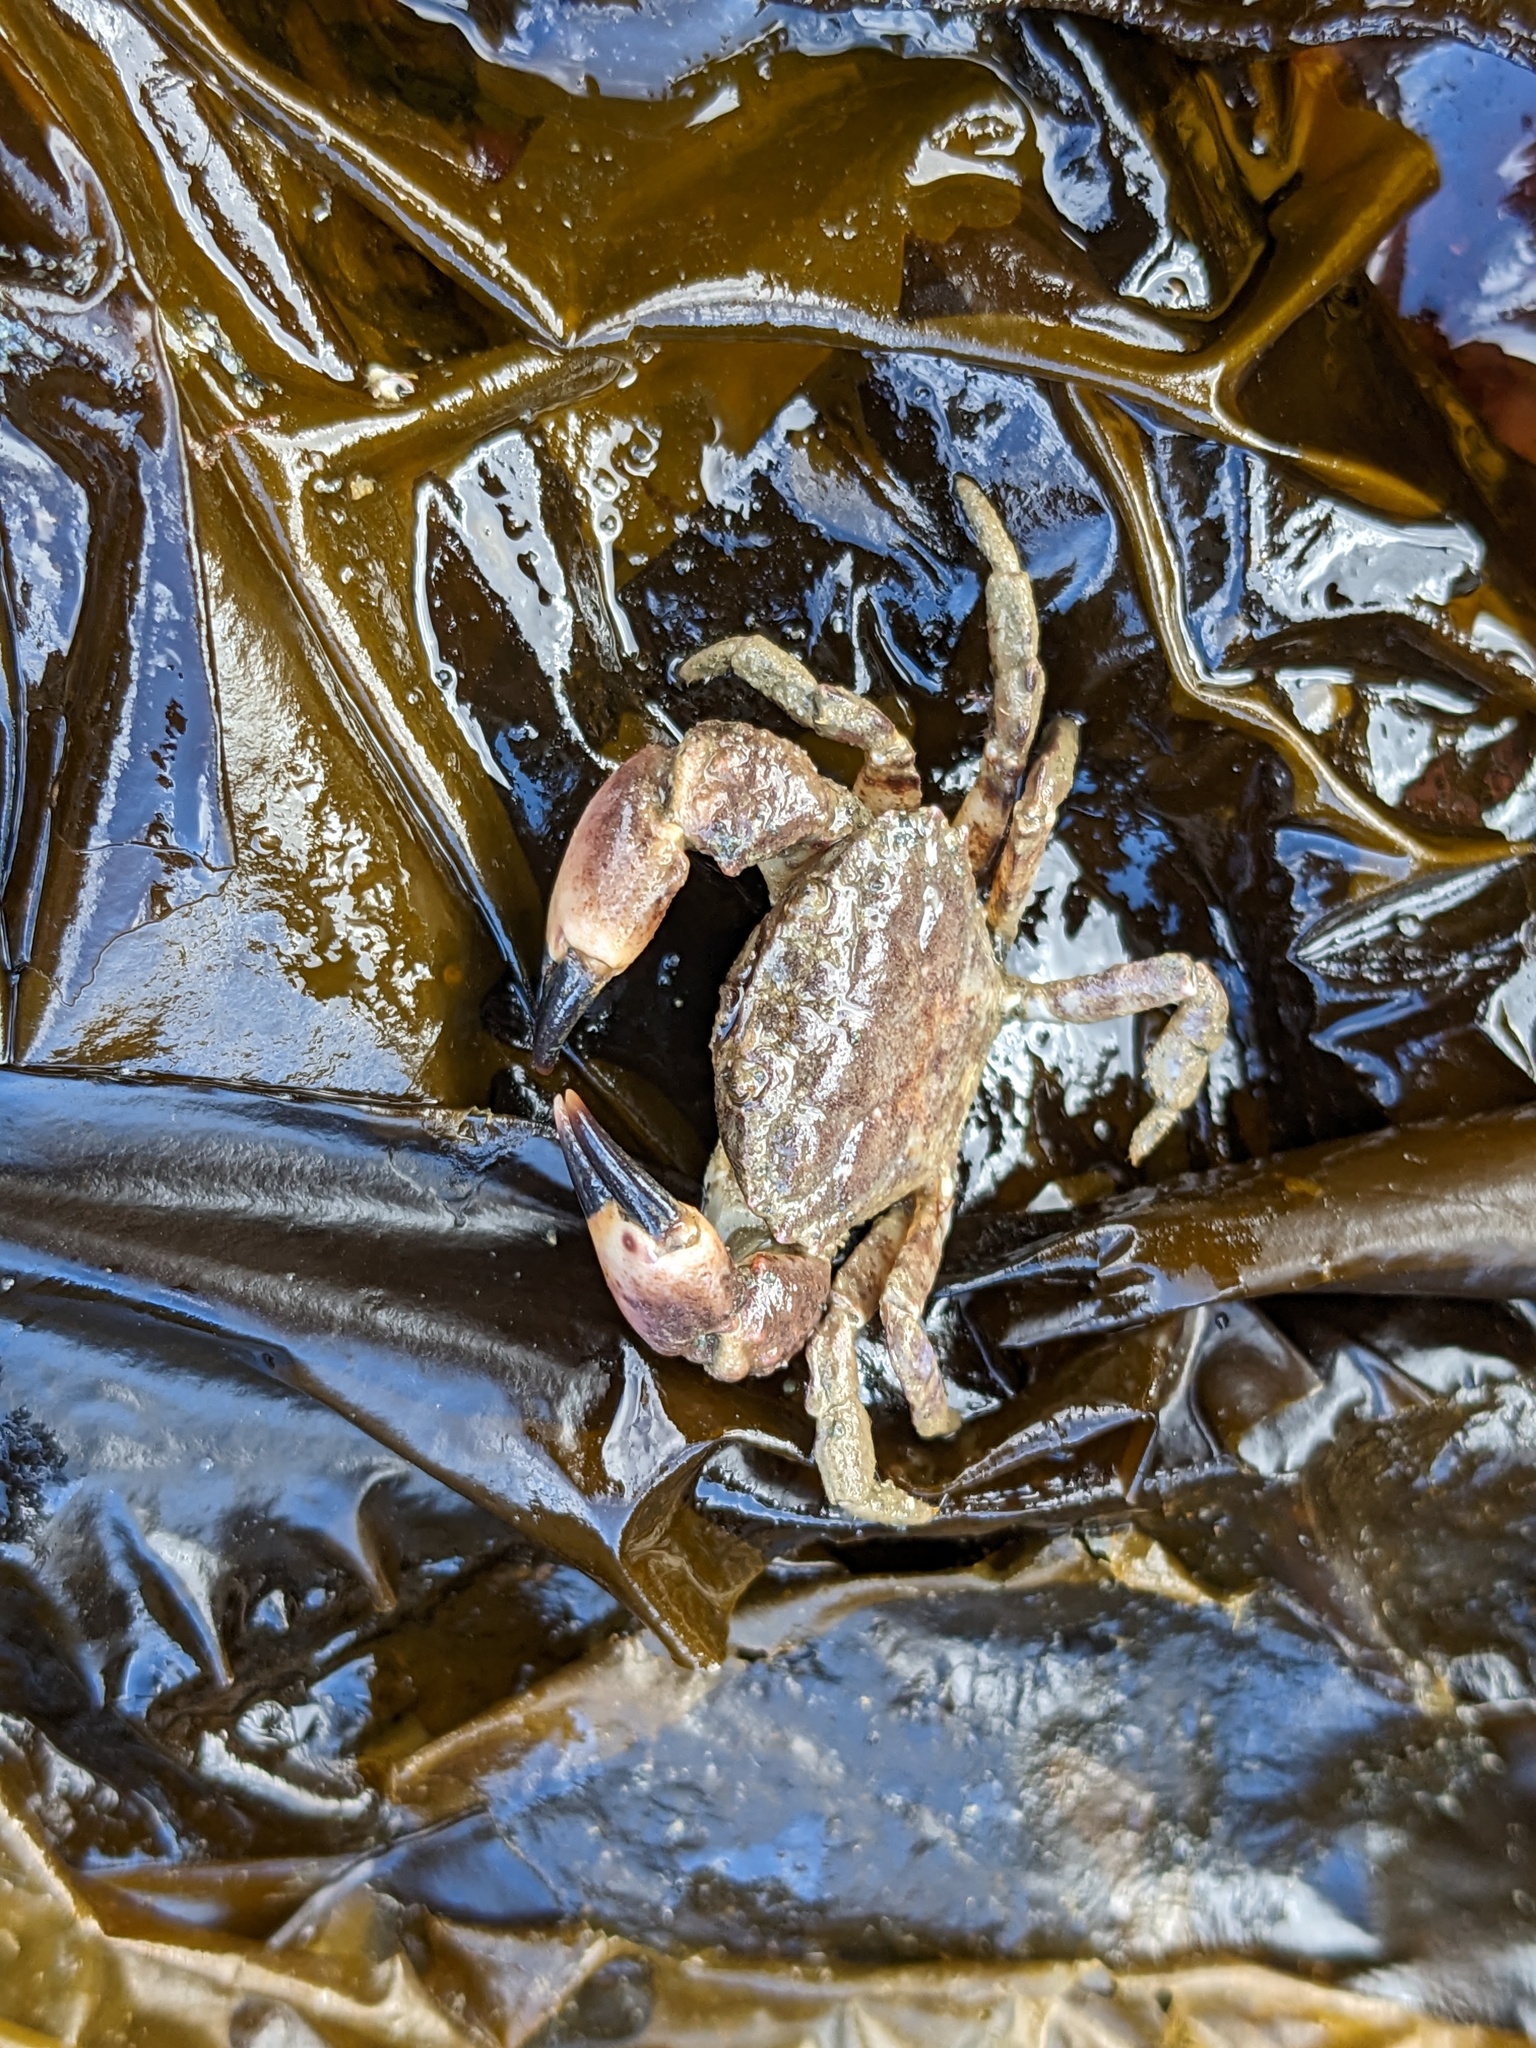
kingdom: Animalia
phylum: Arthropoda
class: Malacostraca
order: Decapoda
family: Panopeidae
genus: Lophopanopeus
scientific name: Lophopanopeus bellus
